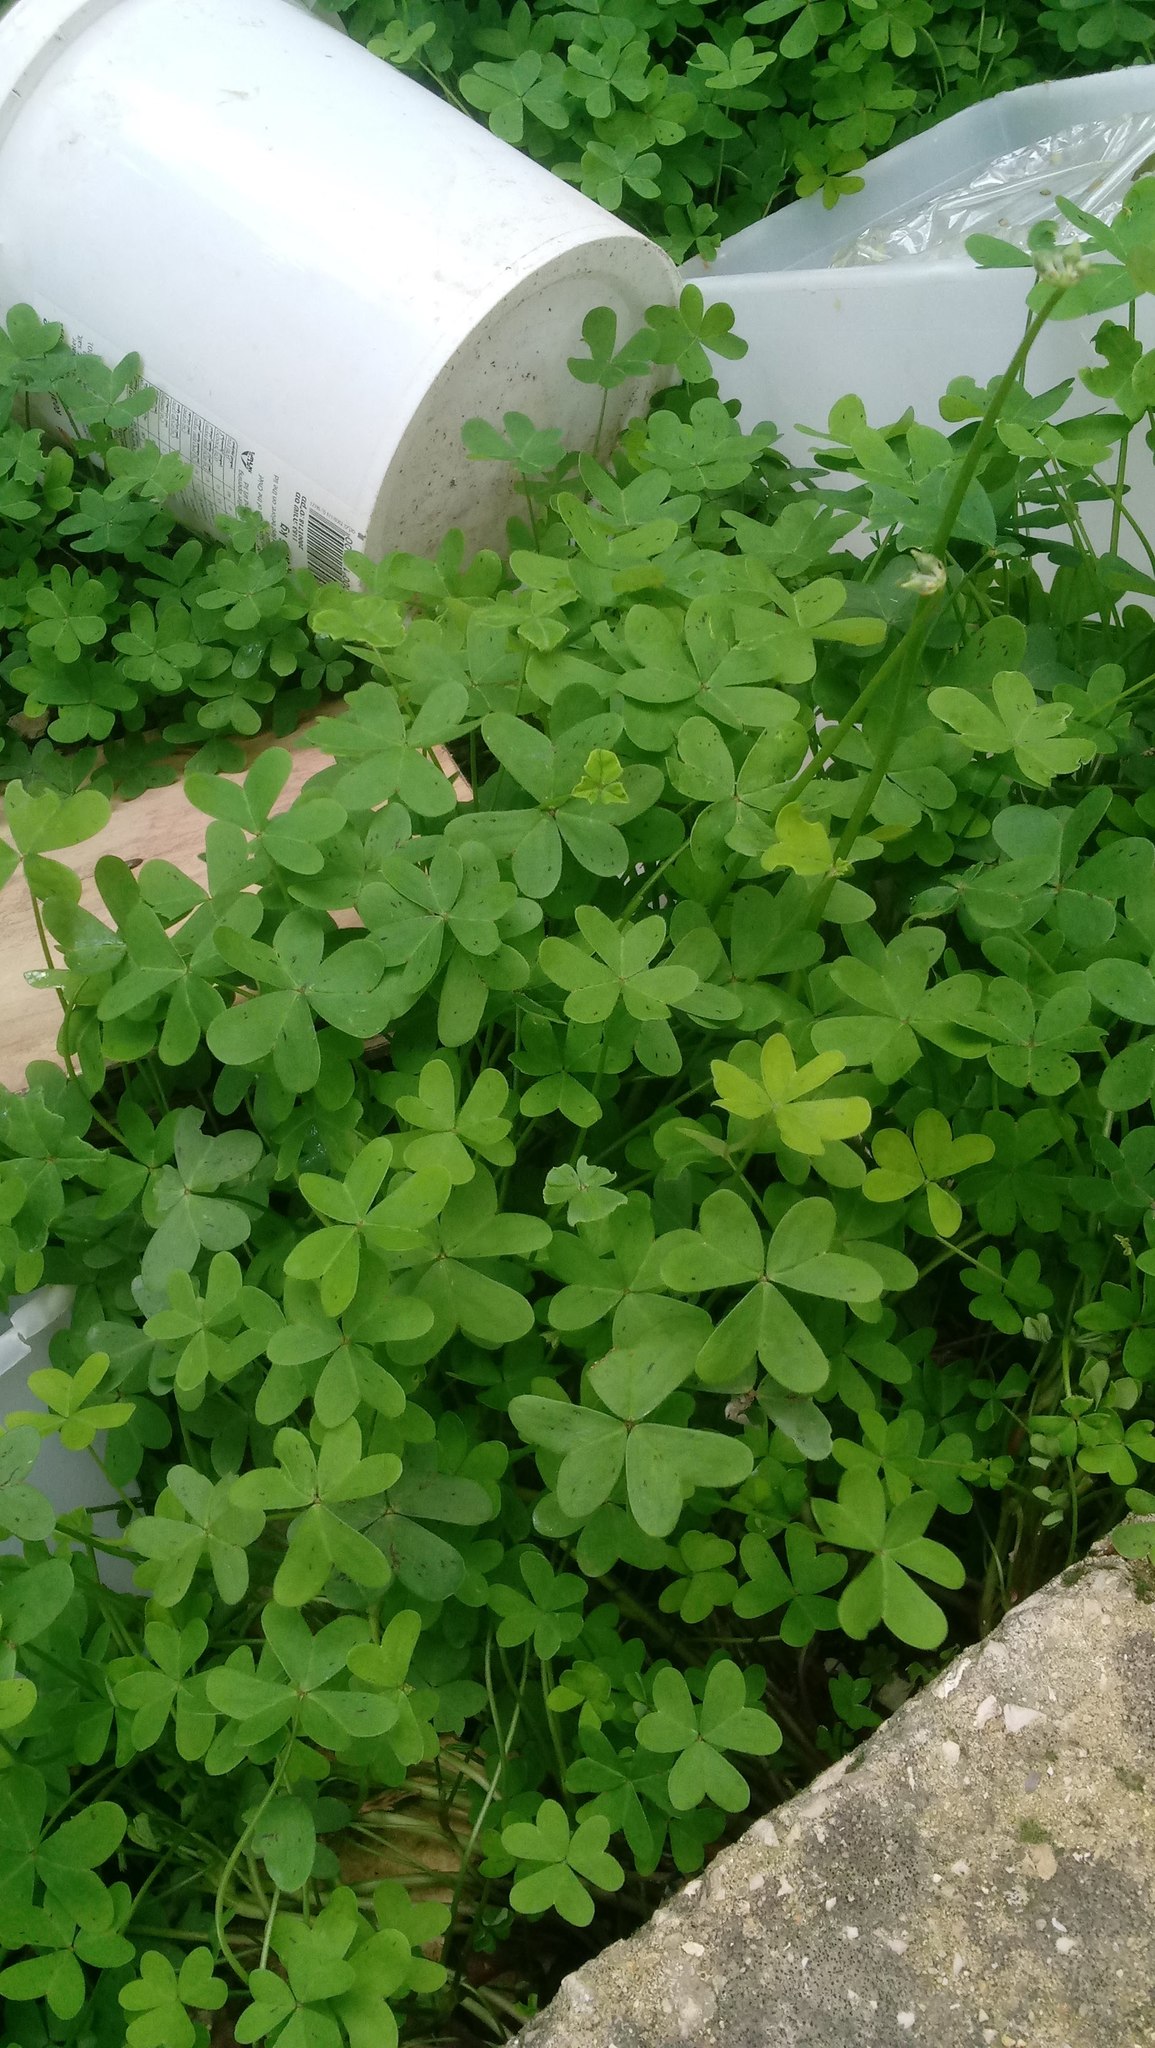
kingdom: Plantae
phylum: Tracheophyta
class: Magnoliopsida
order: Oxalidales
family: Oxalidaceae
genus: Oxalis
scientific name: Oxalis pes-caprae
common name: Bermuda-buttercup
